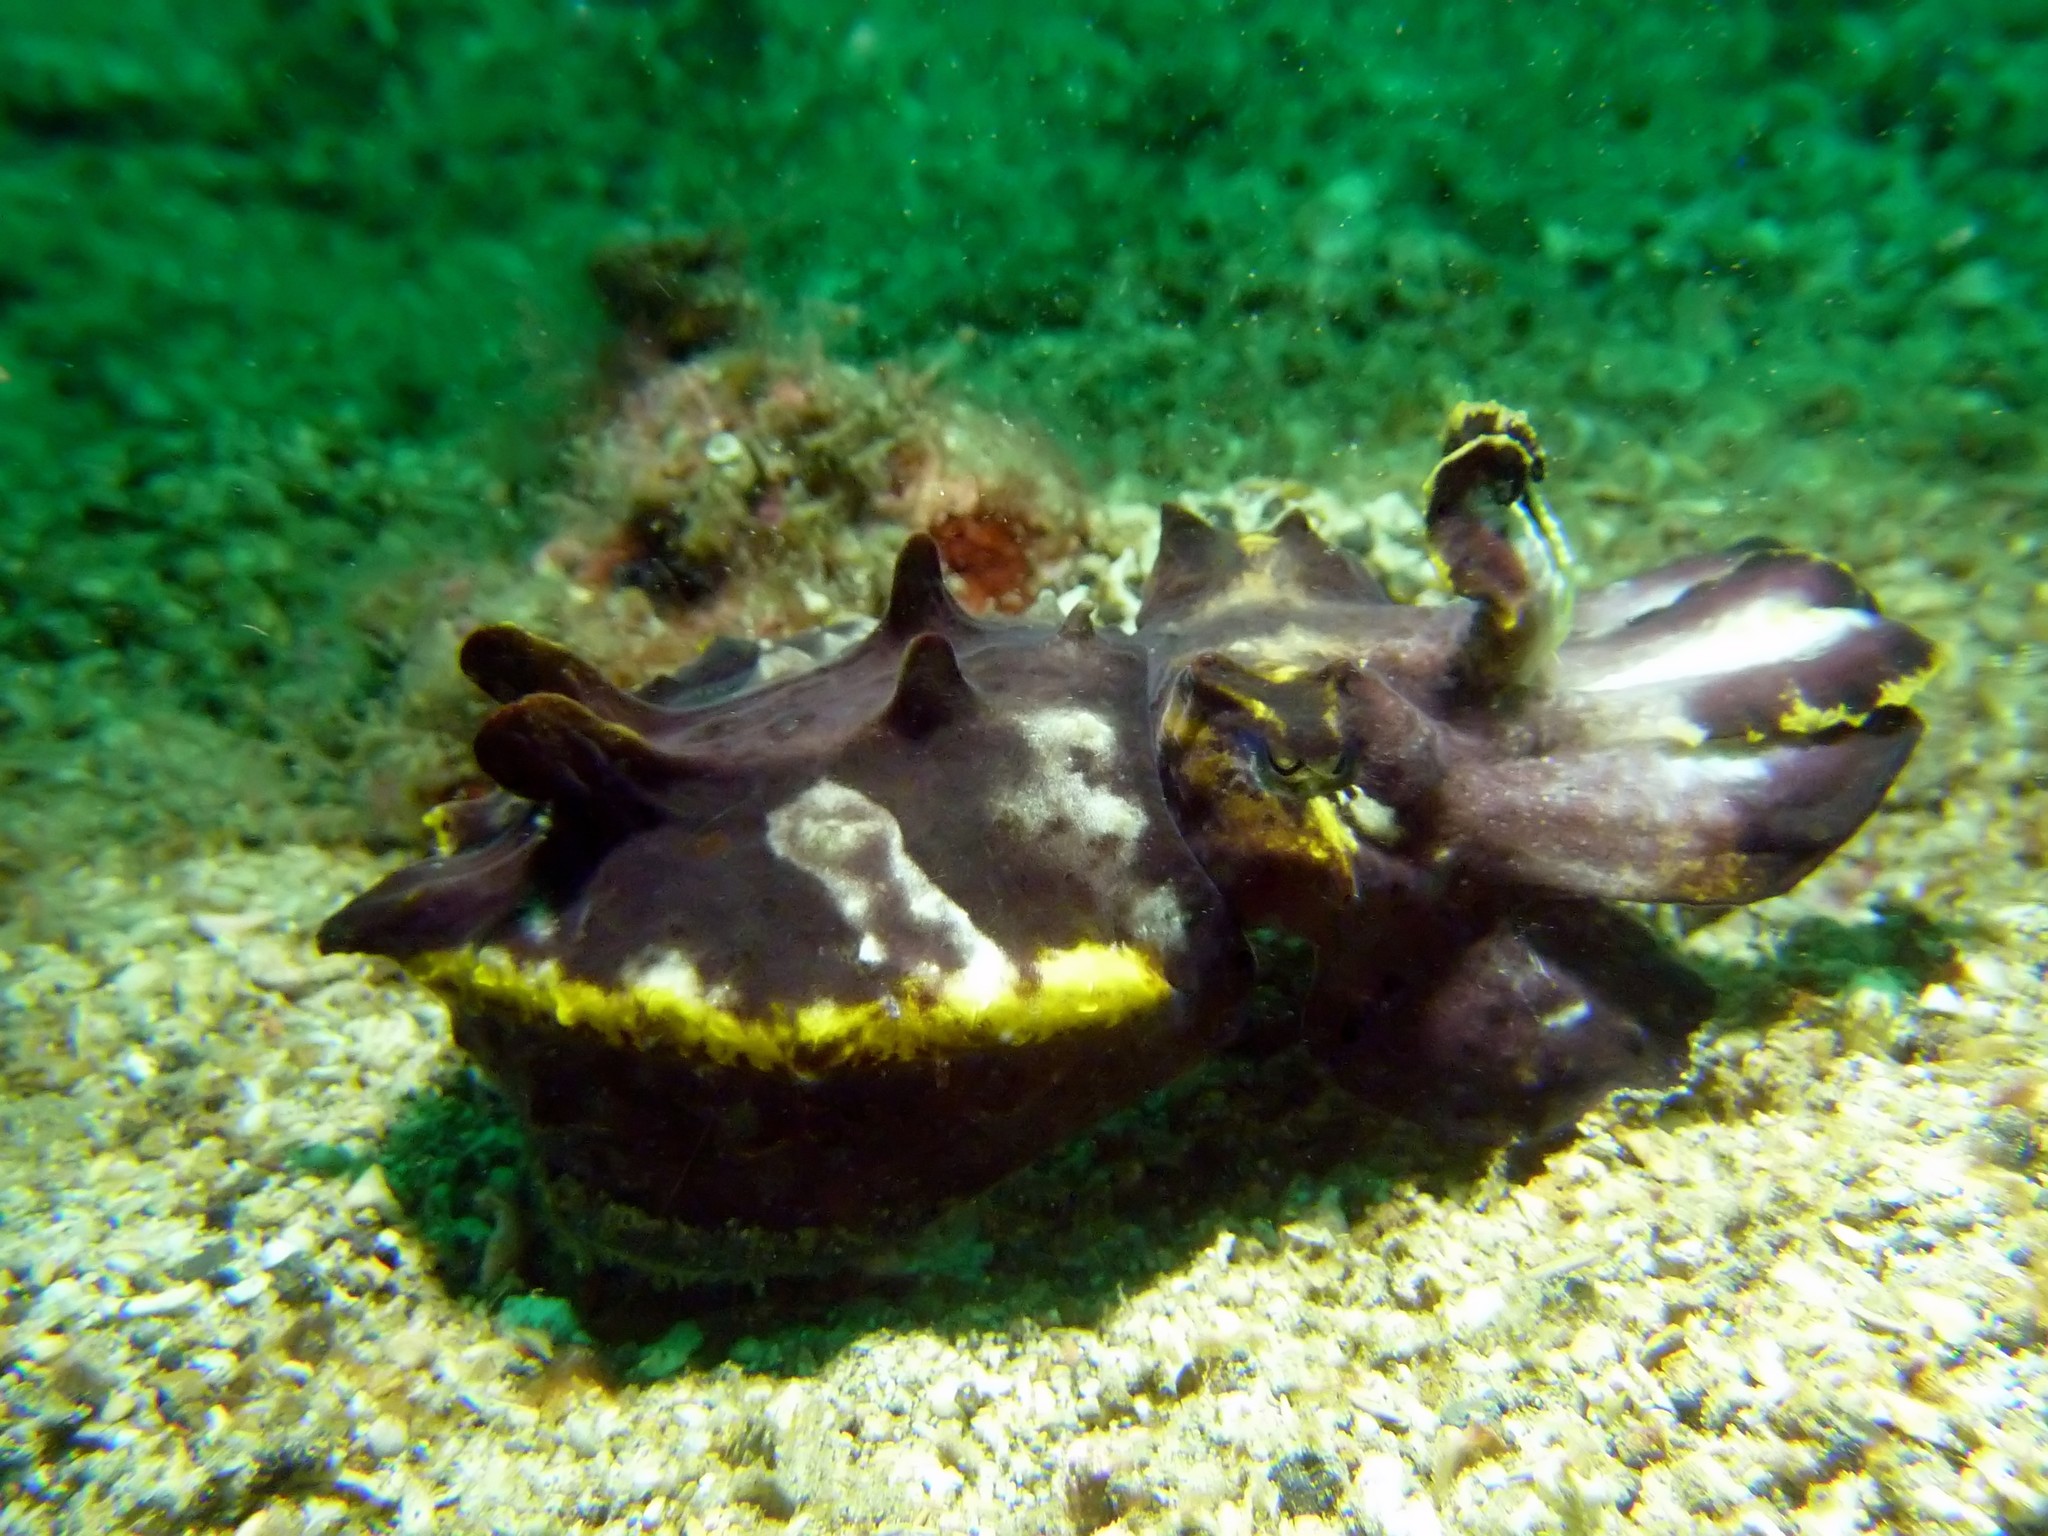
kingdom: Animalia
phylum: Mollusca
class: Cephalopoda
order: Sepiida
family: Sepiidae
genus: Ascarosepion
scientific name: Ascarosepion pfefferi
